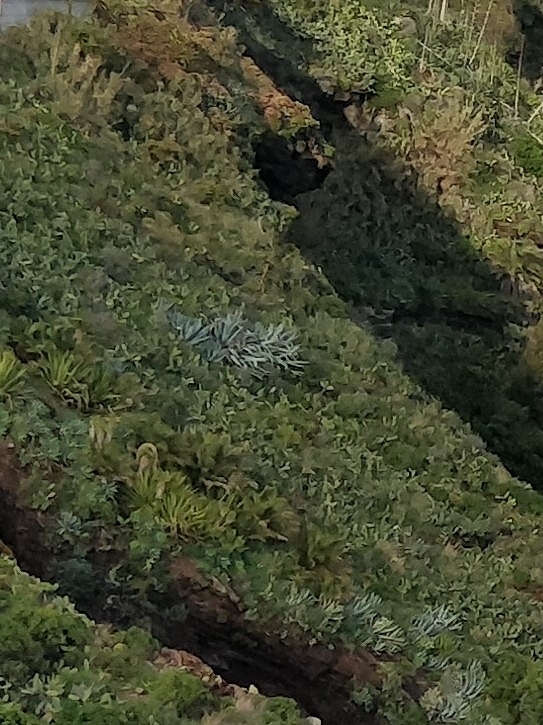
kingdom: Plantae
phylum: Tracheophyta
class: Liliopsida
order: Asparagales
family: Asparagaceae
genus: Agave
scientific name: Agave americana
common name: Centuryplant
